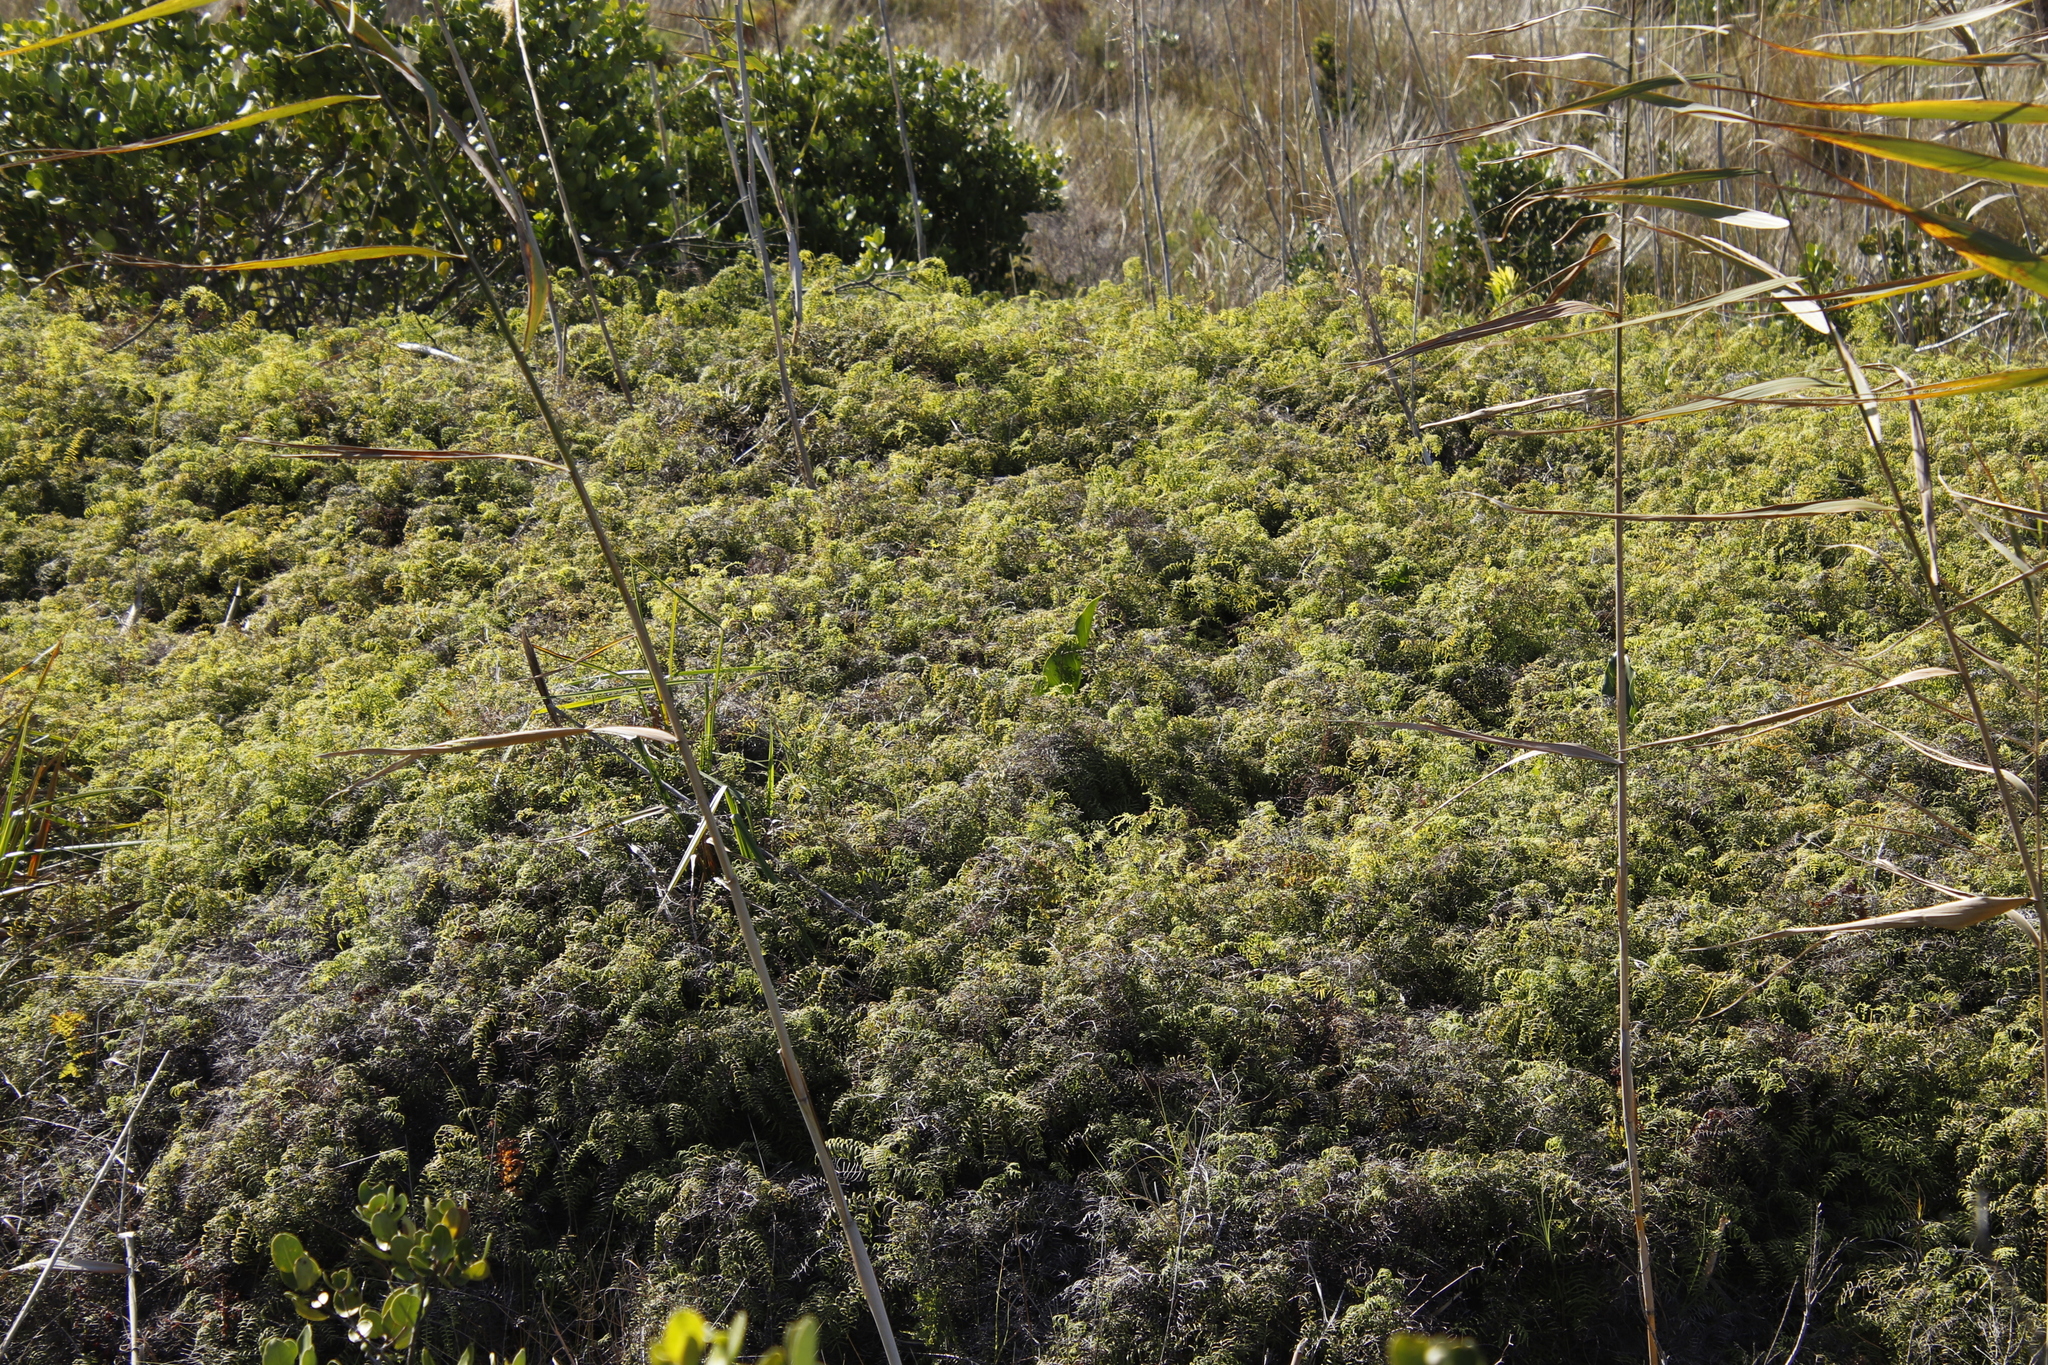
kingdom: Plantae
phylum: Tracheophyta
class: Polypodiopsida
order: Polypodiales
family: Dennstaedtiaceae
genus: Pteridium
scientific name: Pteridium aquilinum
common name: Bracken
